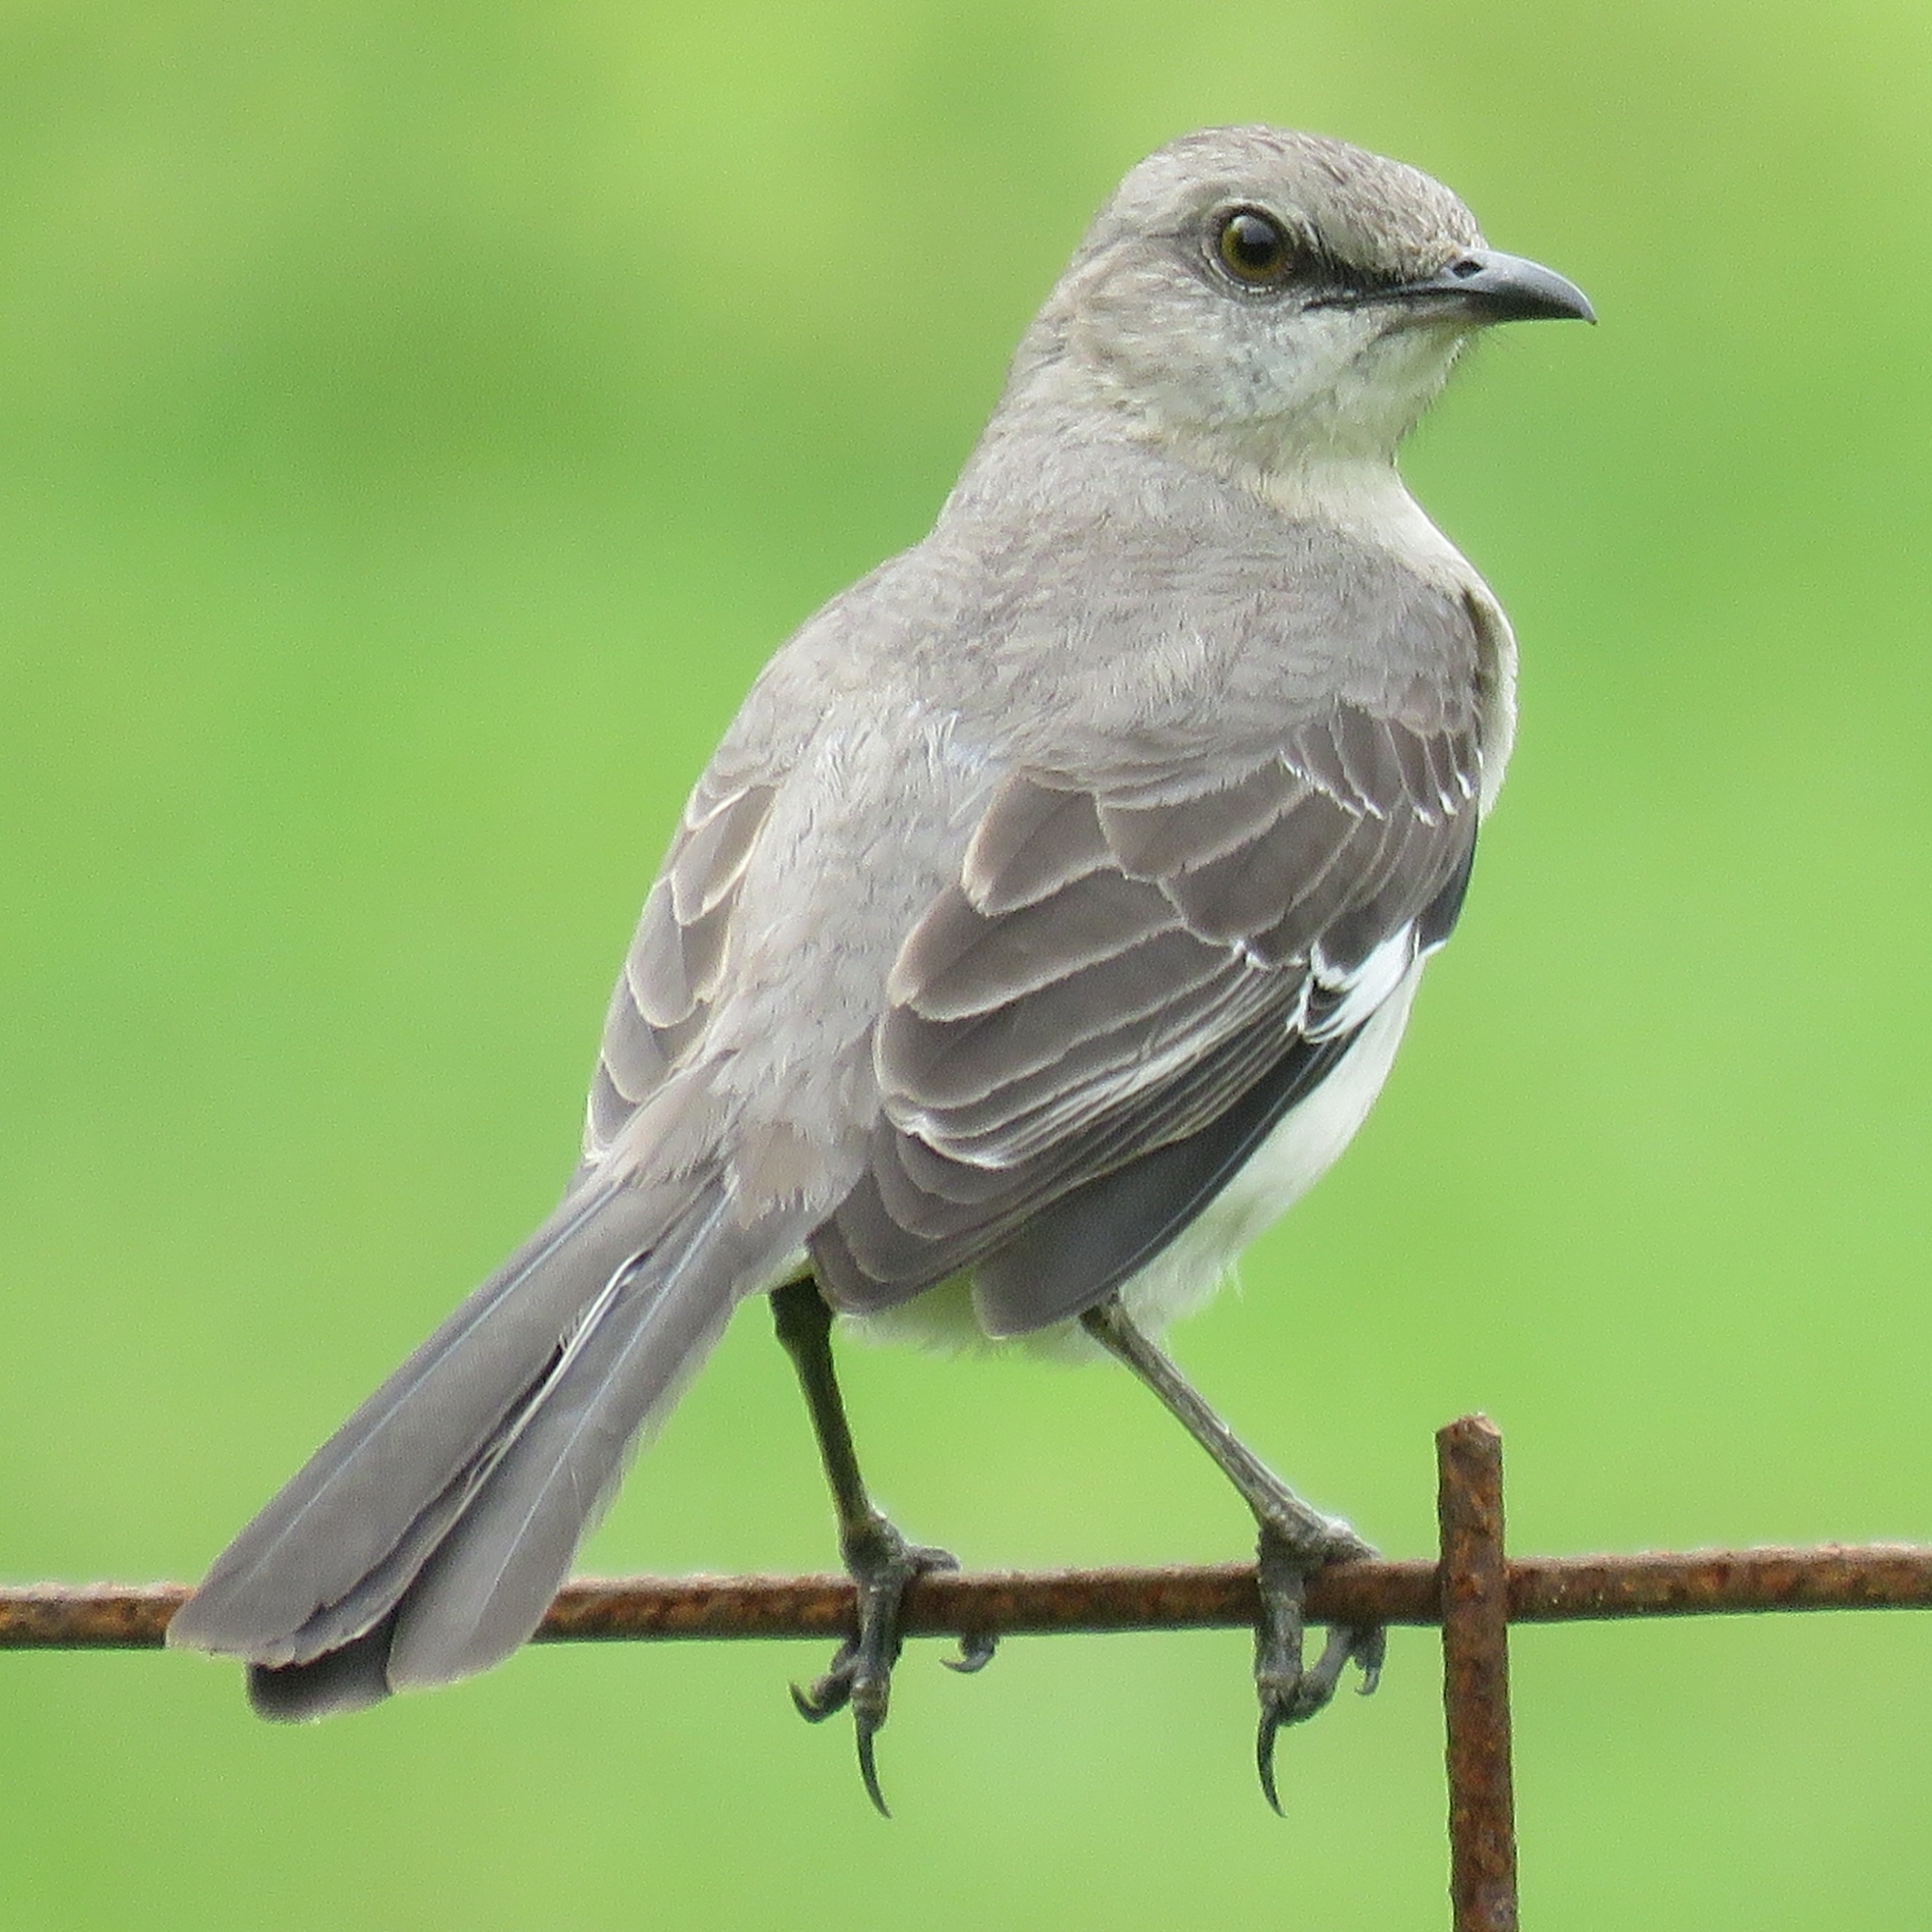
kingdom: Animalia
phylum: Chordata
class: Aves
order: Passeriformes
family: Mimidae
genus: Mimus
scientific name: Mimus polyglottos
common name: Northern mockingbird
